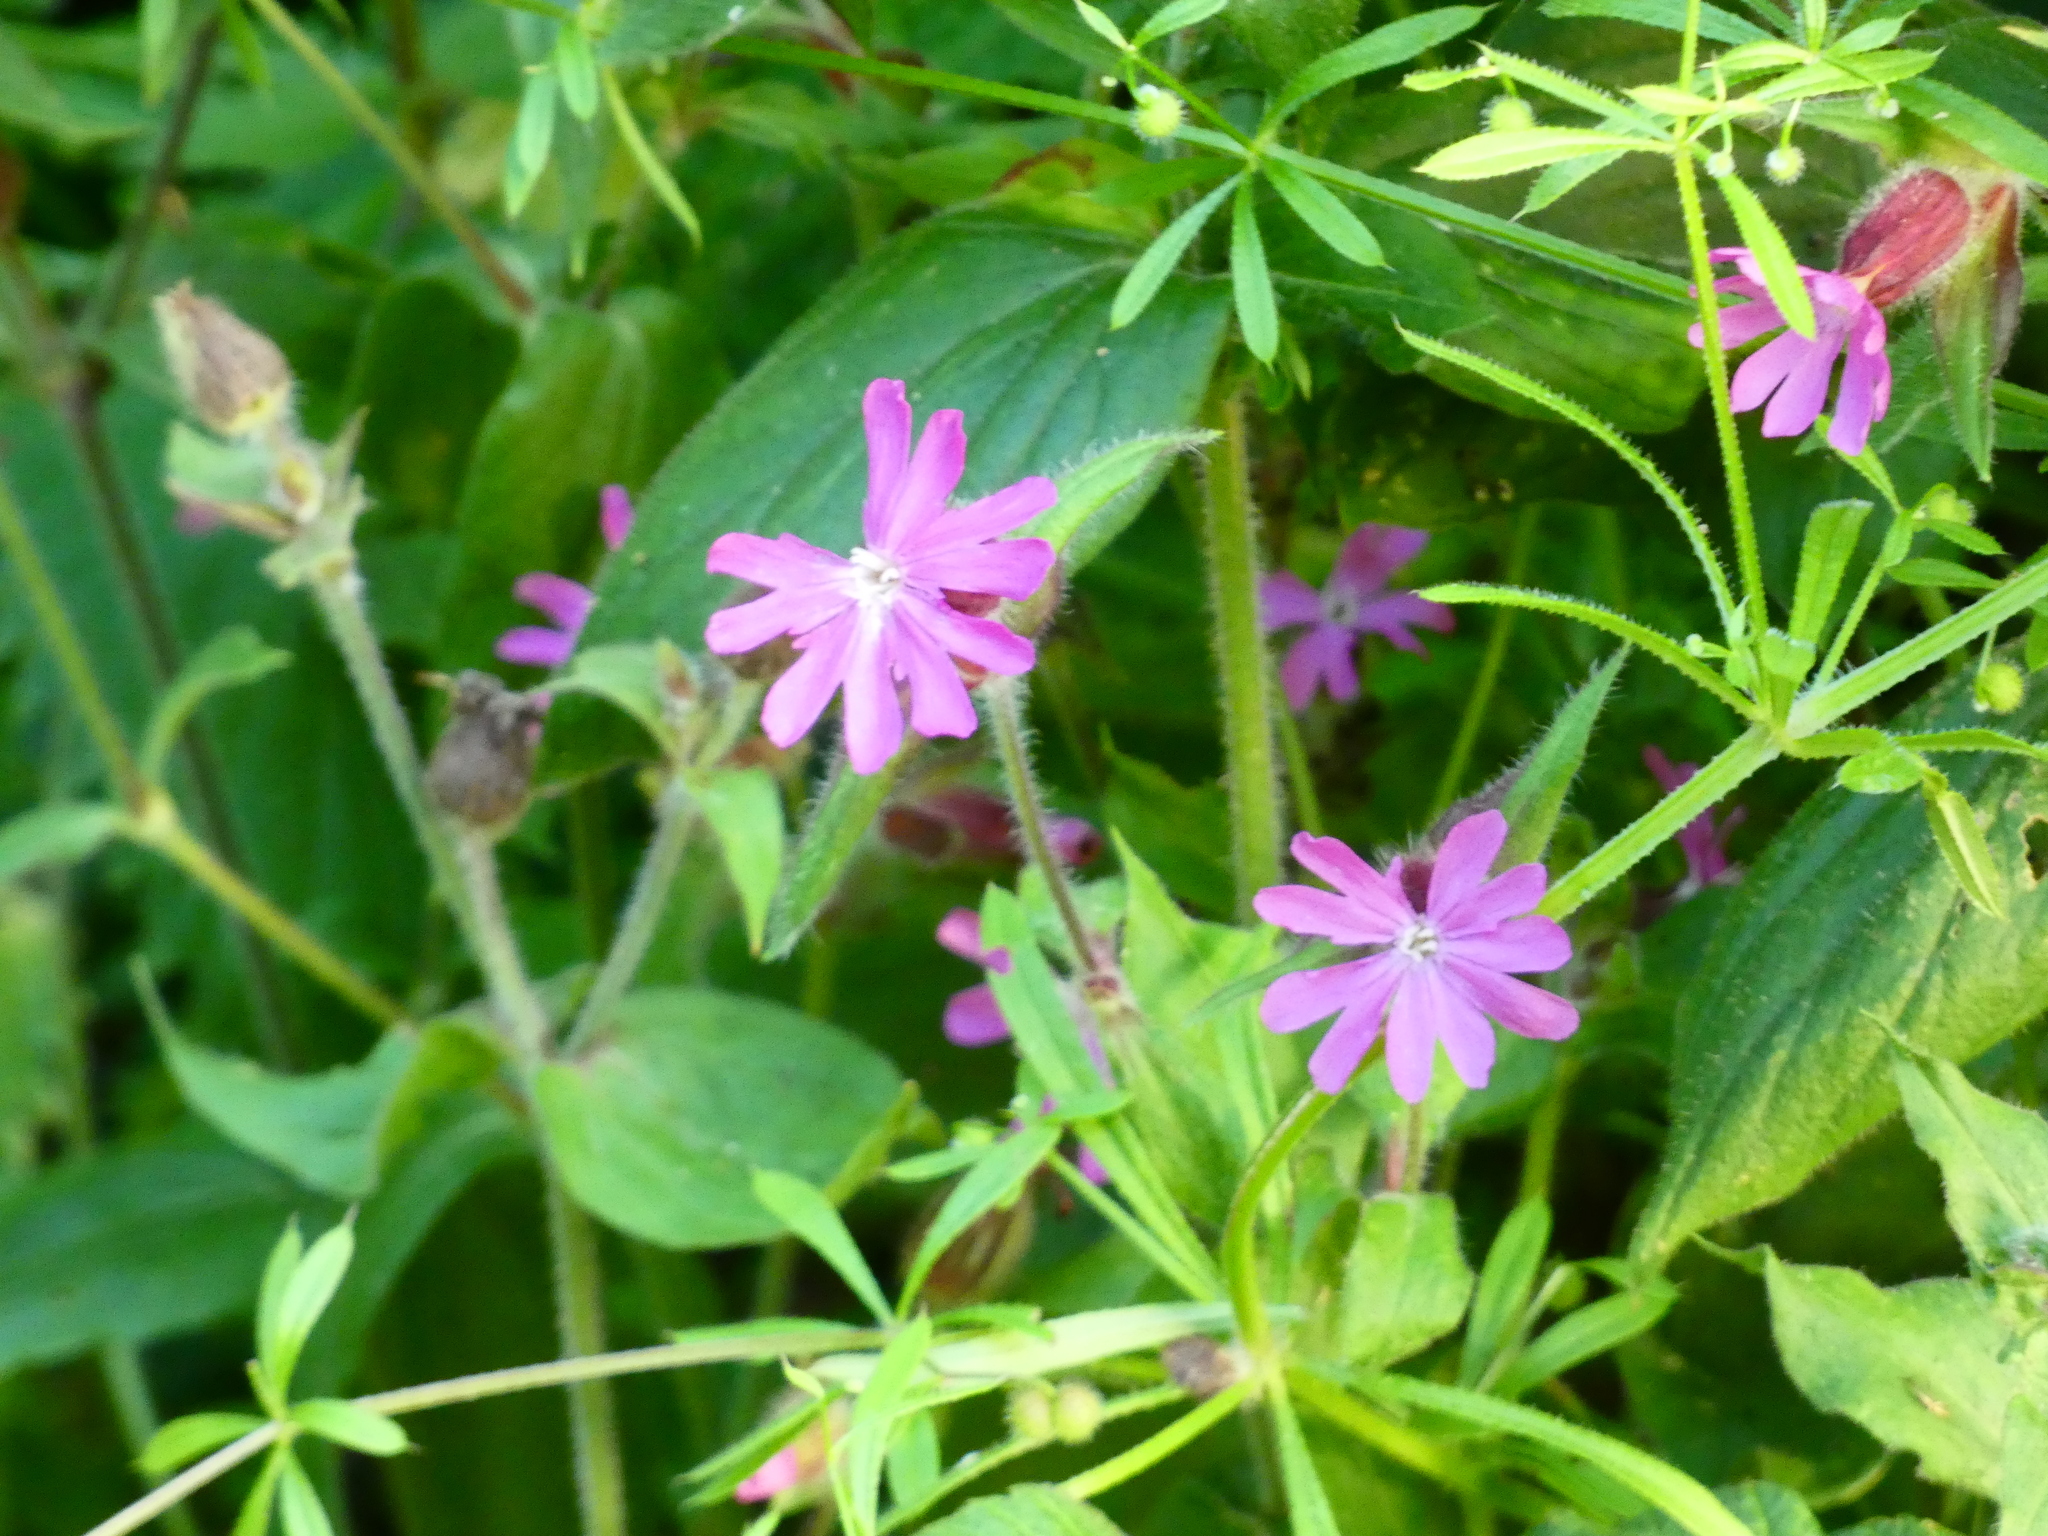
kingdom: Plantae
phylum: Tracheophyta
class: Magnoliopsida
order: Caryophyllales
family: Caryophyllaceae
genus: Silene
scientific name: Silene dioica
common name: Red campion
